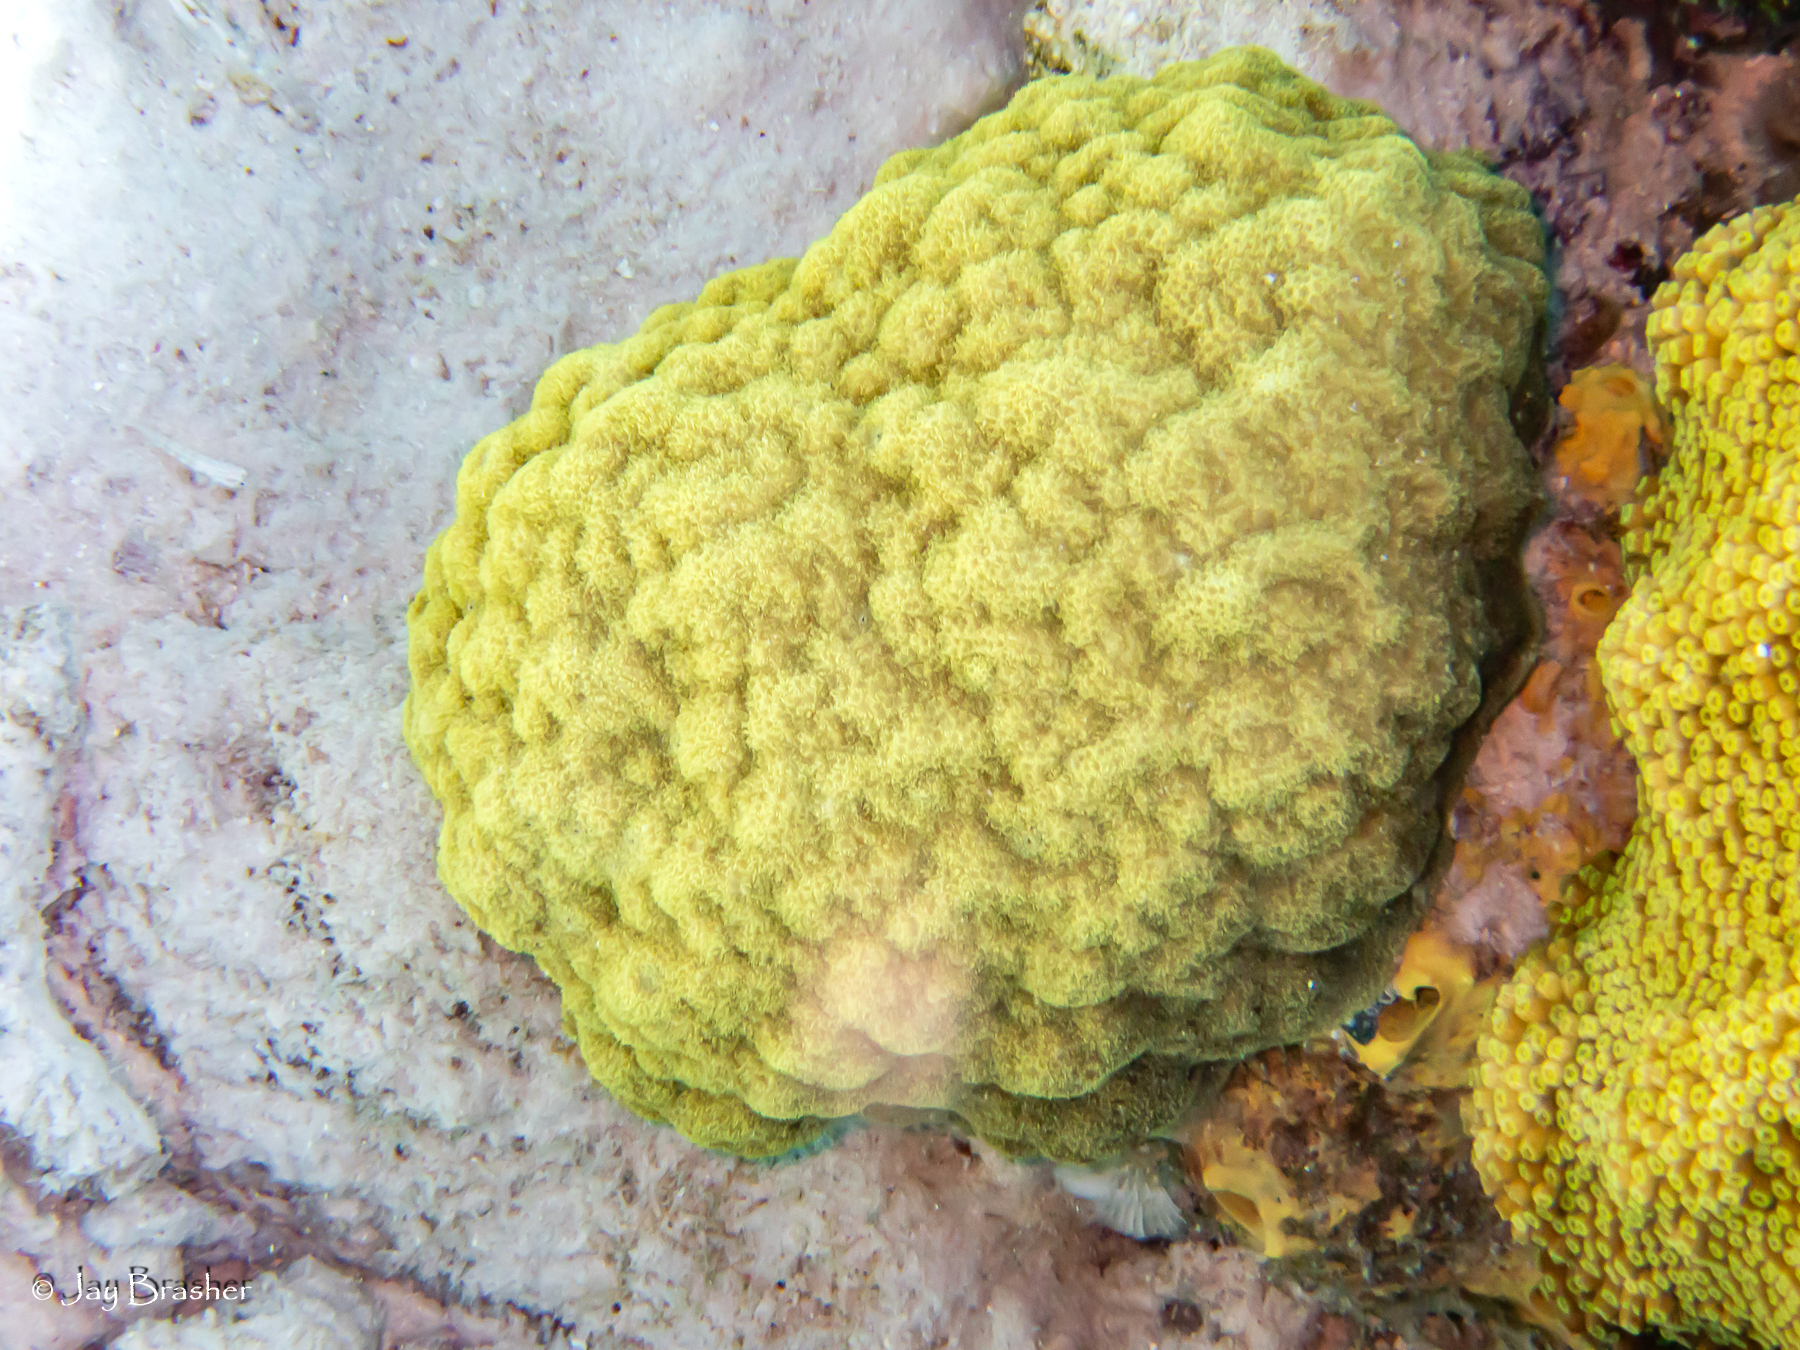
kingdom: Animalia
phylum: Cnidaria
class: Anthozoa
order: Scleractinia
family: Poritidae
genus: Porites
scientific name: Porites astreoides
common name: Mustard hill coral
